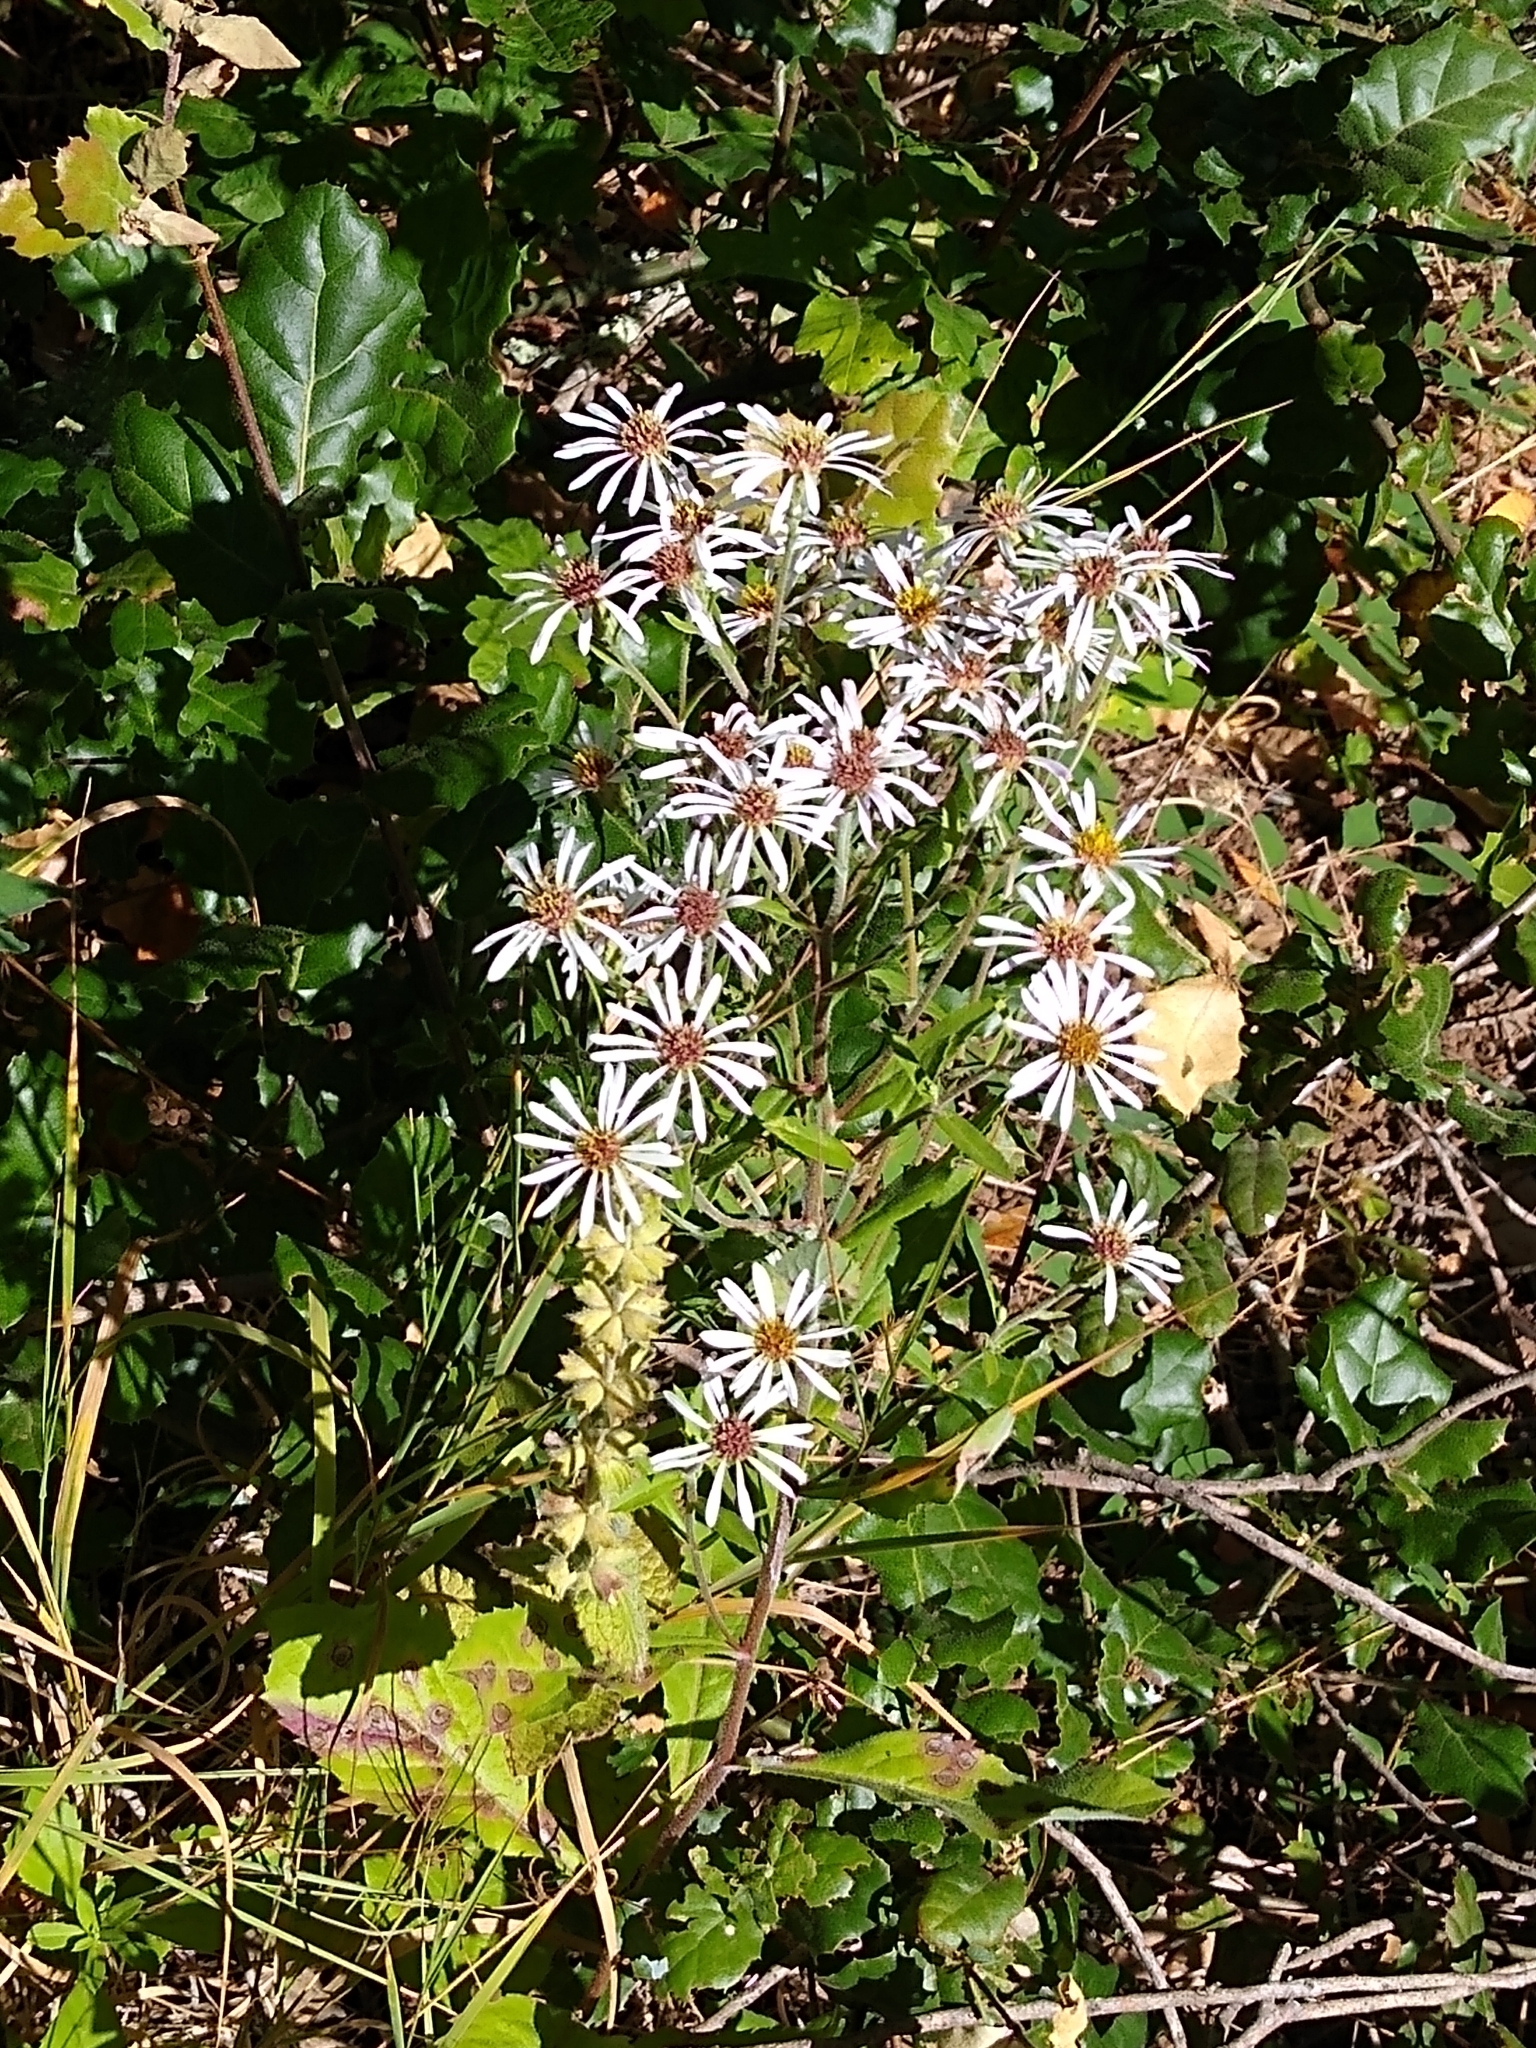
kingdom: Plantae
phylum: Tracheophyta
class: Magnoliopsida
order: Asterales
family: Asteraceae
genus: Eurybia
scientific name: Eurybia radulina
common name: Rough-leaved aster
